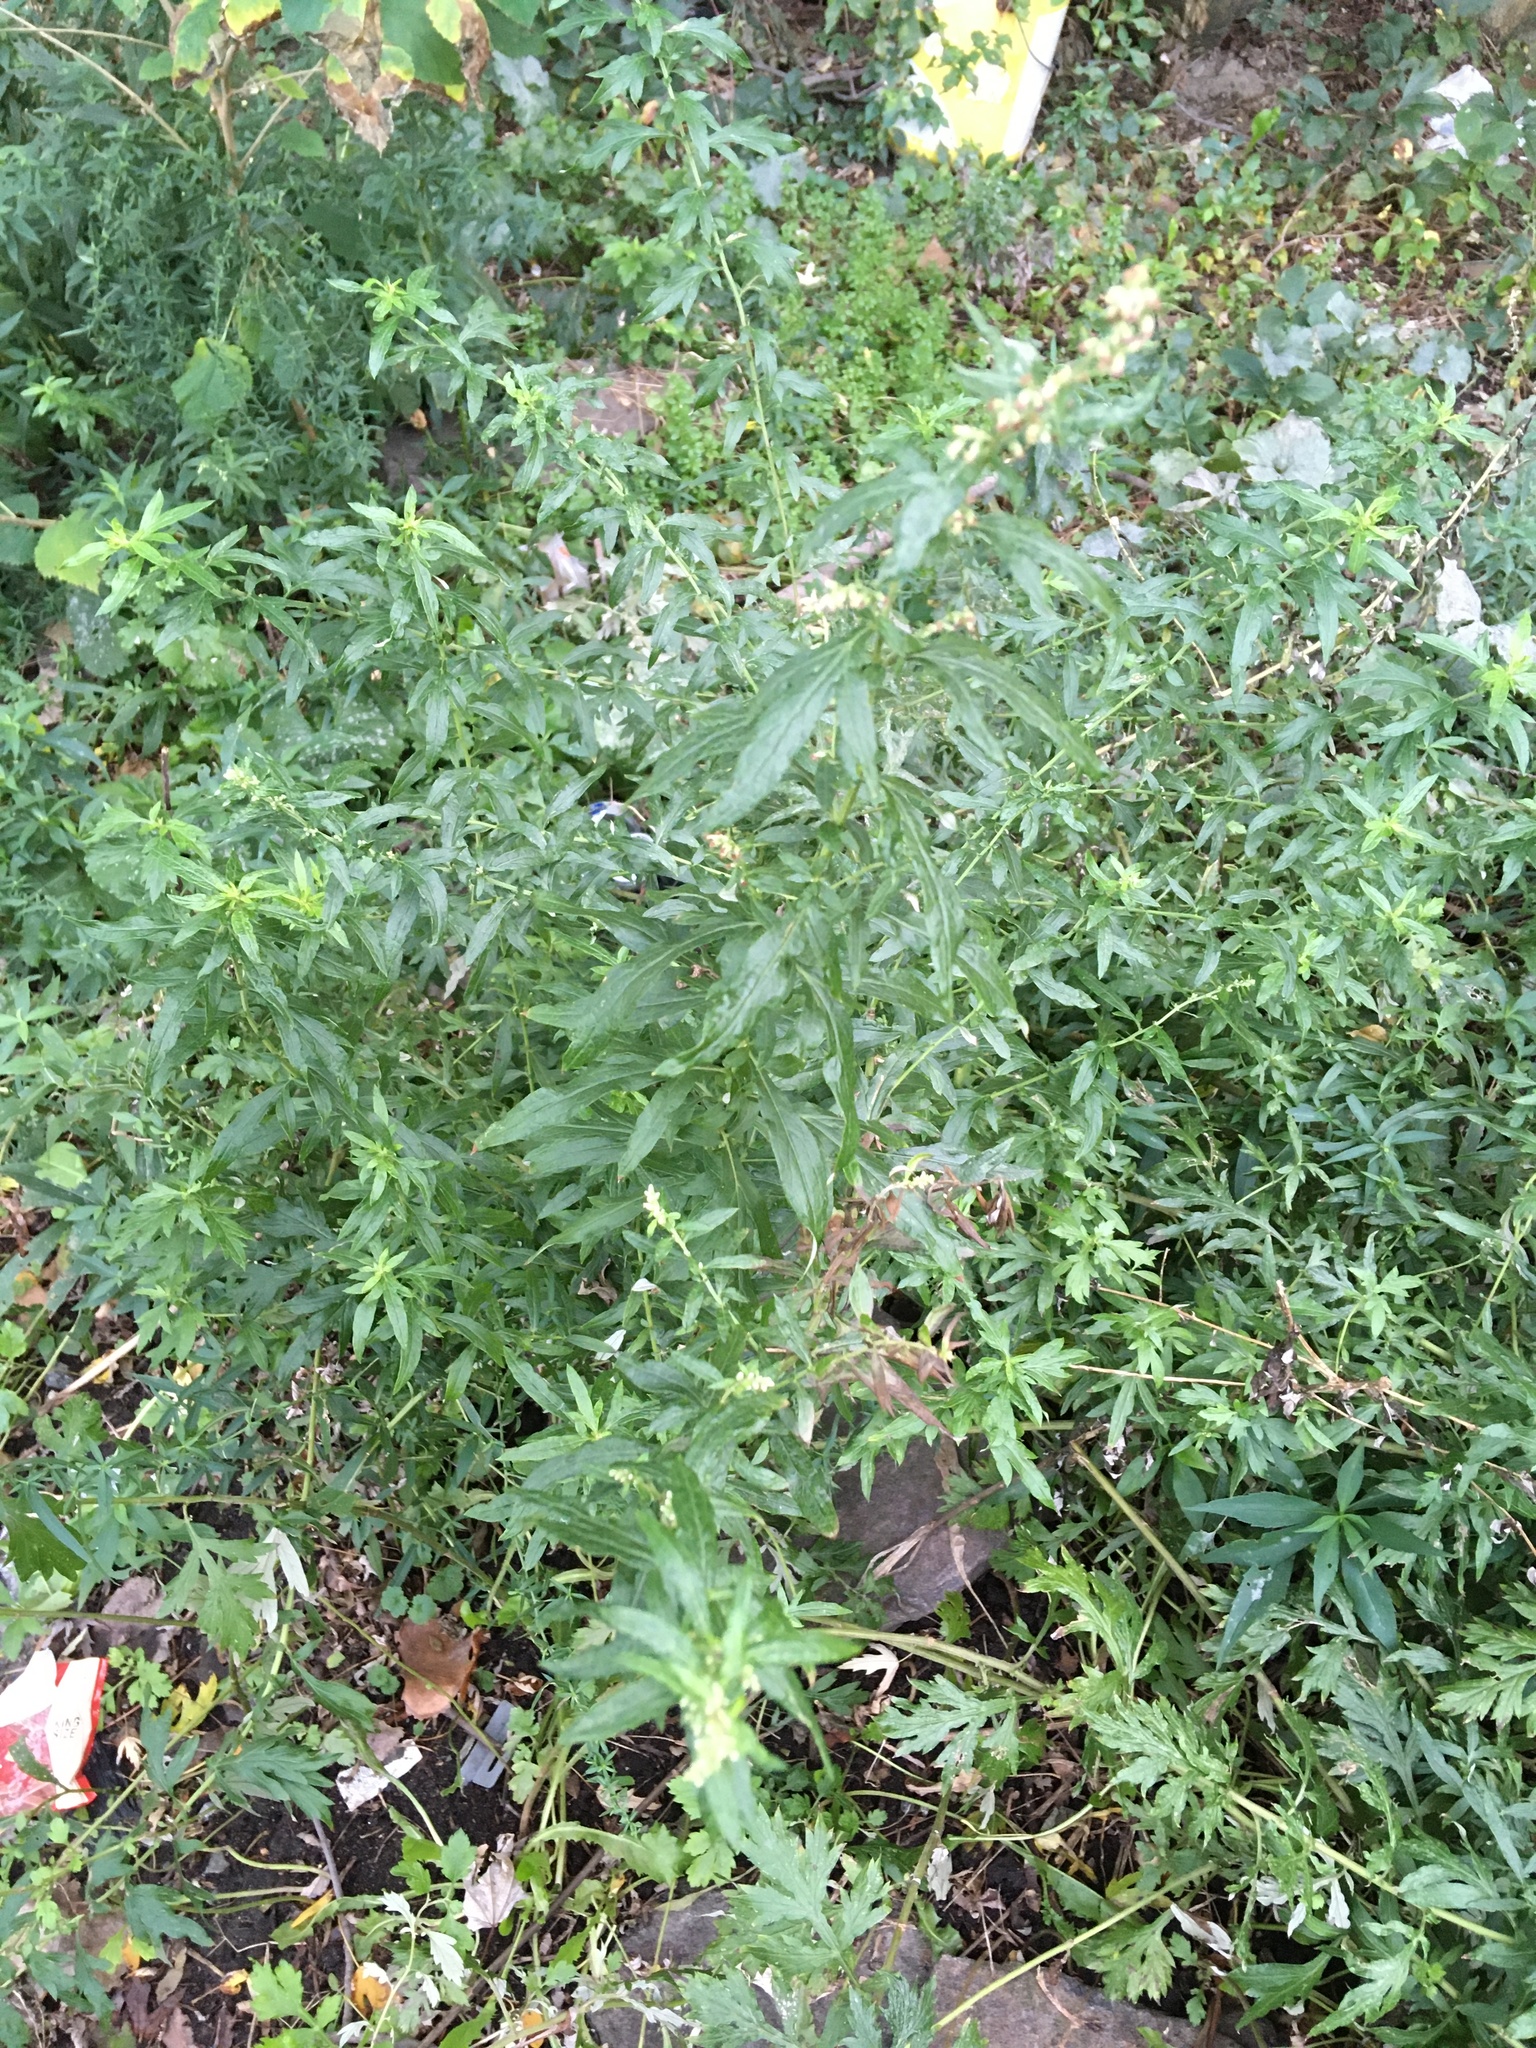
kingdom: Plantae
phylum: Tracheophyta
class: Magnoliopsida
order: Asterales
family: Asteraceae
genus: Artemisia
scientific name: Artemisia vulgaris
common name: Mugwort
